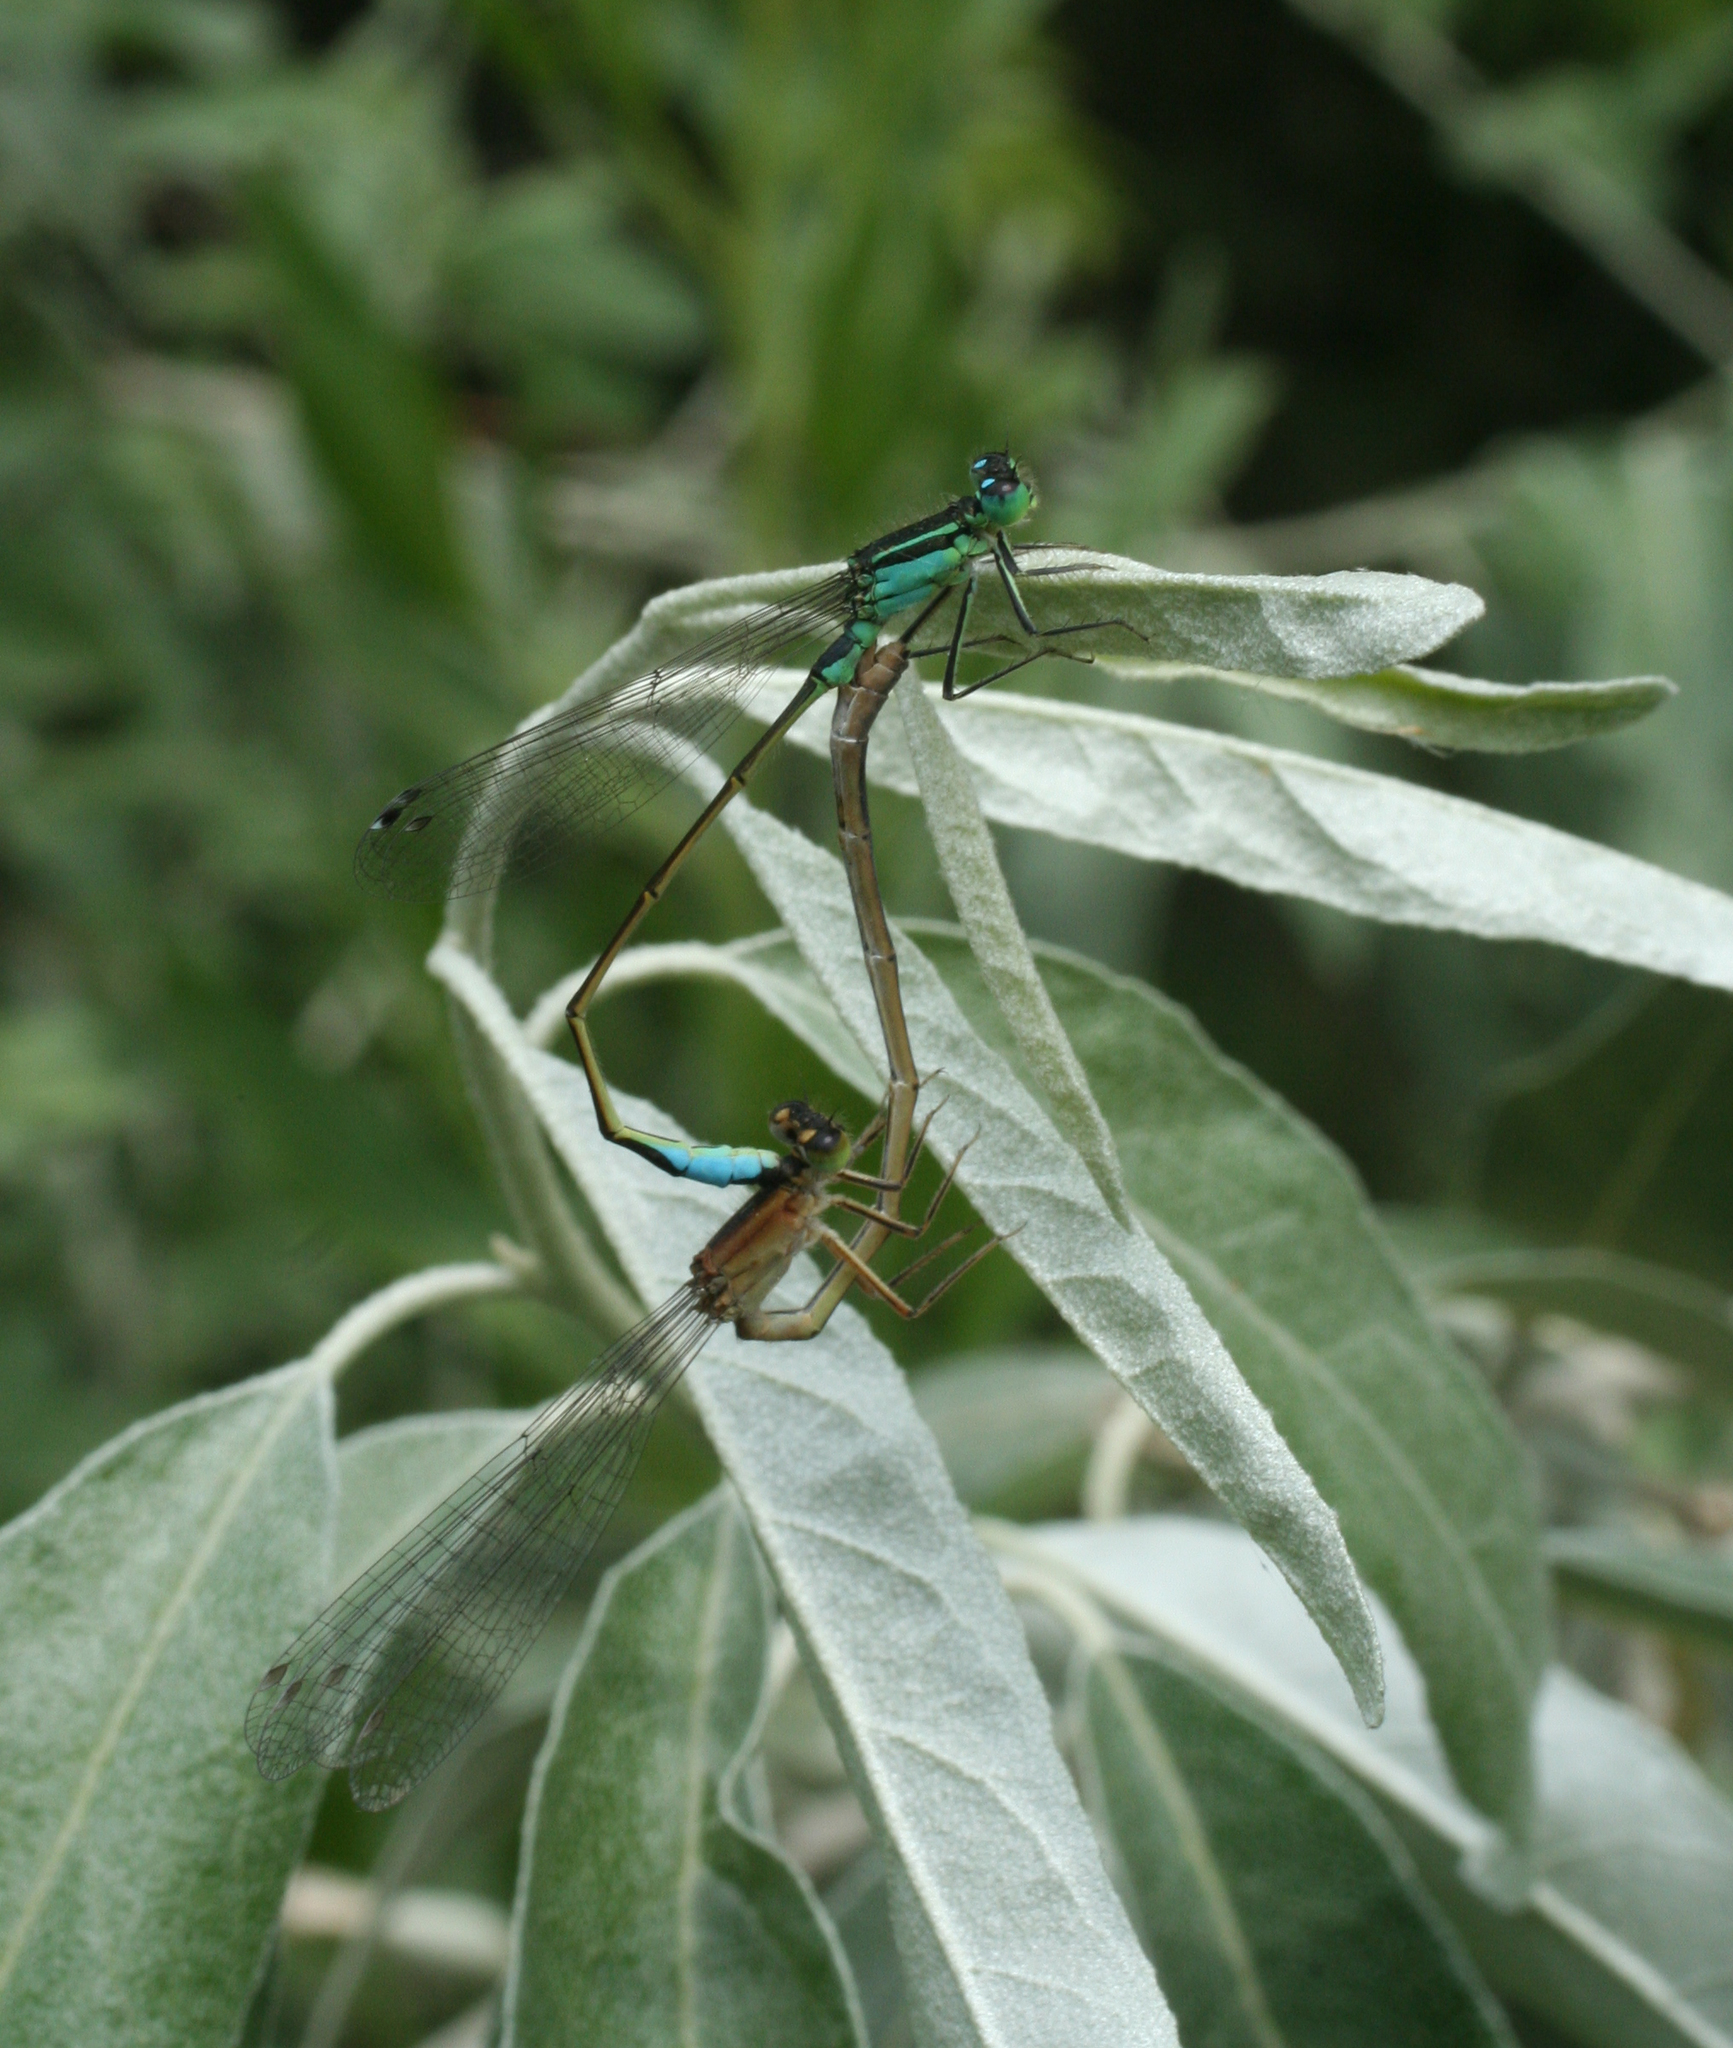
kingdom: Animalia
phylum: Arthropoda
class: Insecta
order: Odonata
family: Coenagrionidae
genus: Ischnura
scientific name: Ischnura elegans
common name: Blue-tailed damselfly
